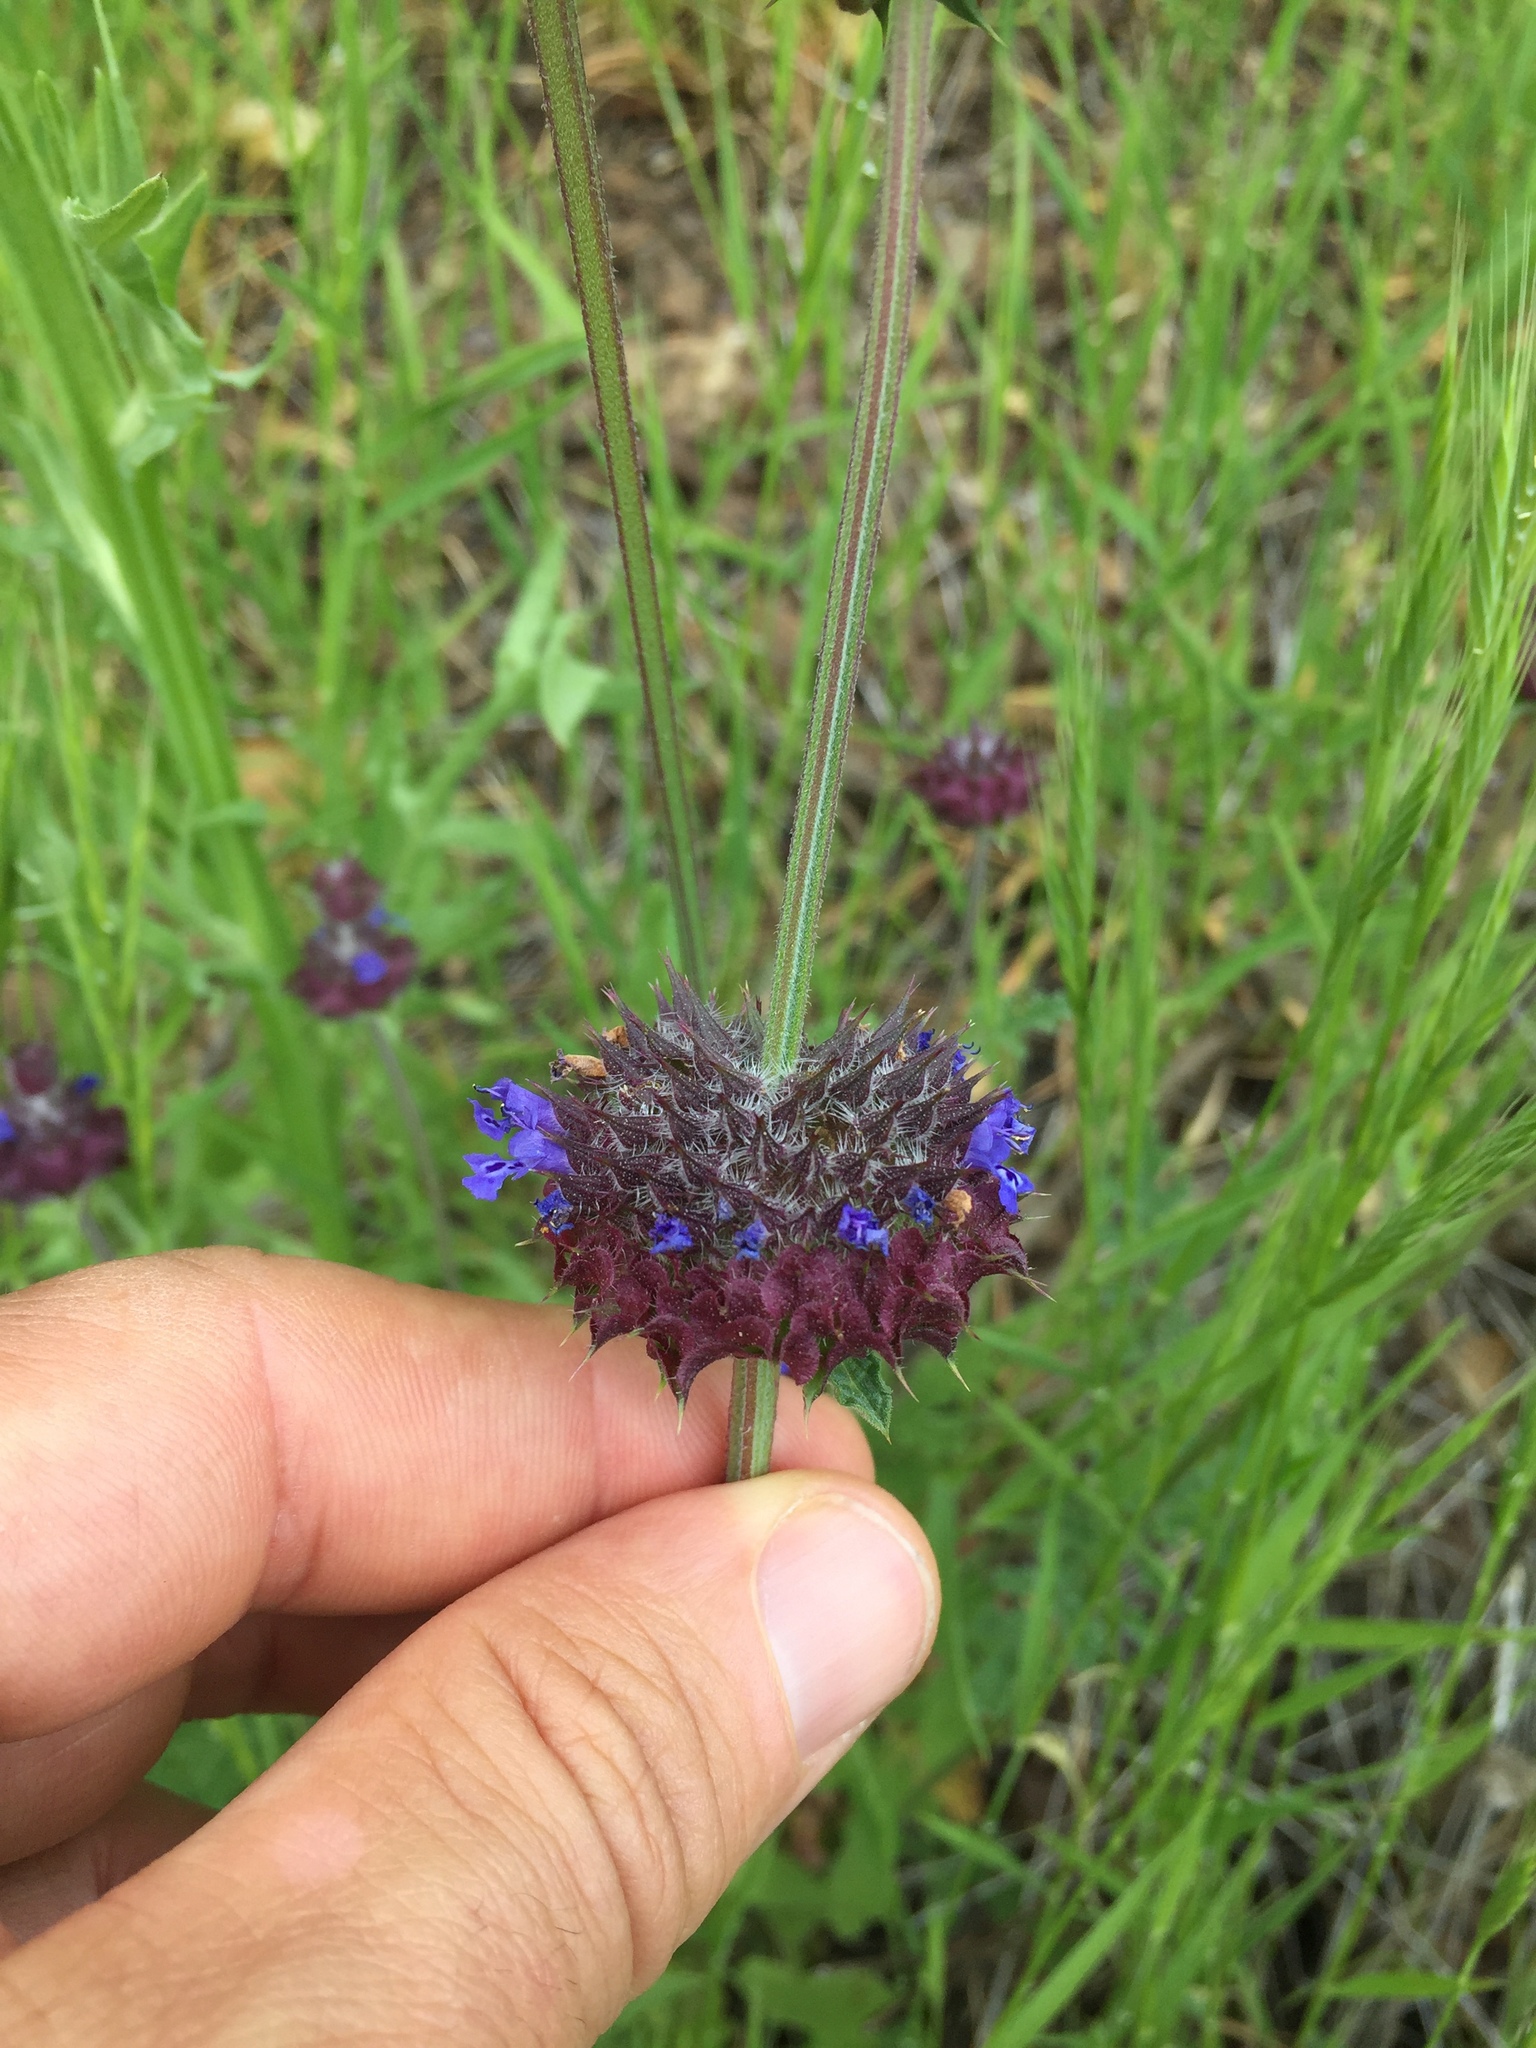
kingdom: Plantae
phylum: Tracheophyta
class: Magnoliopsida
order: Lamiales
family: Lamiaceae
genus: Salvia
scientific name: Salvia columbariae
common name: Chia
